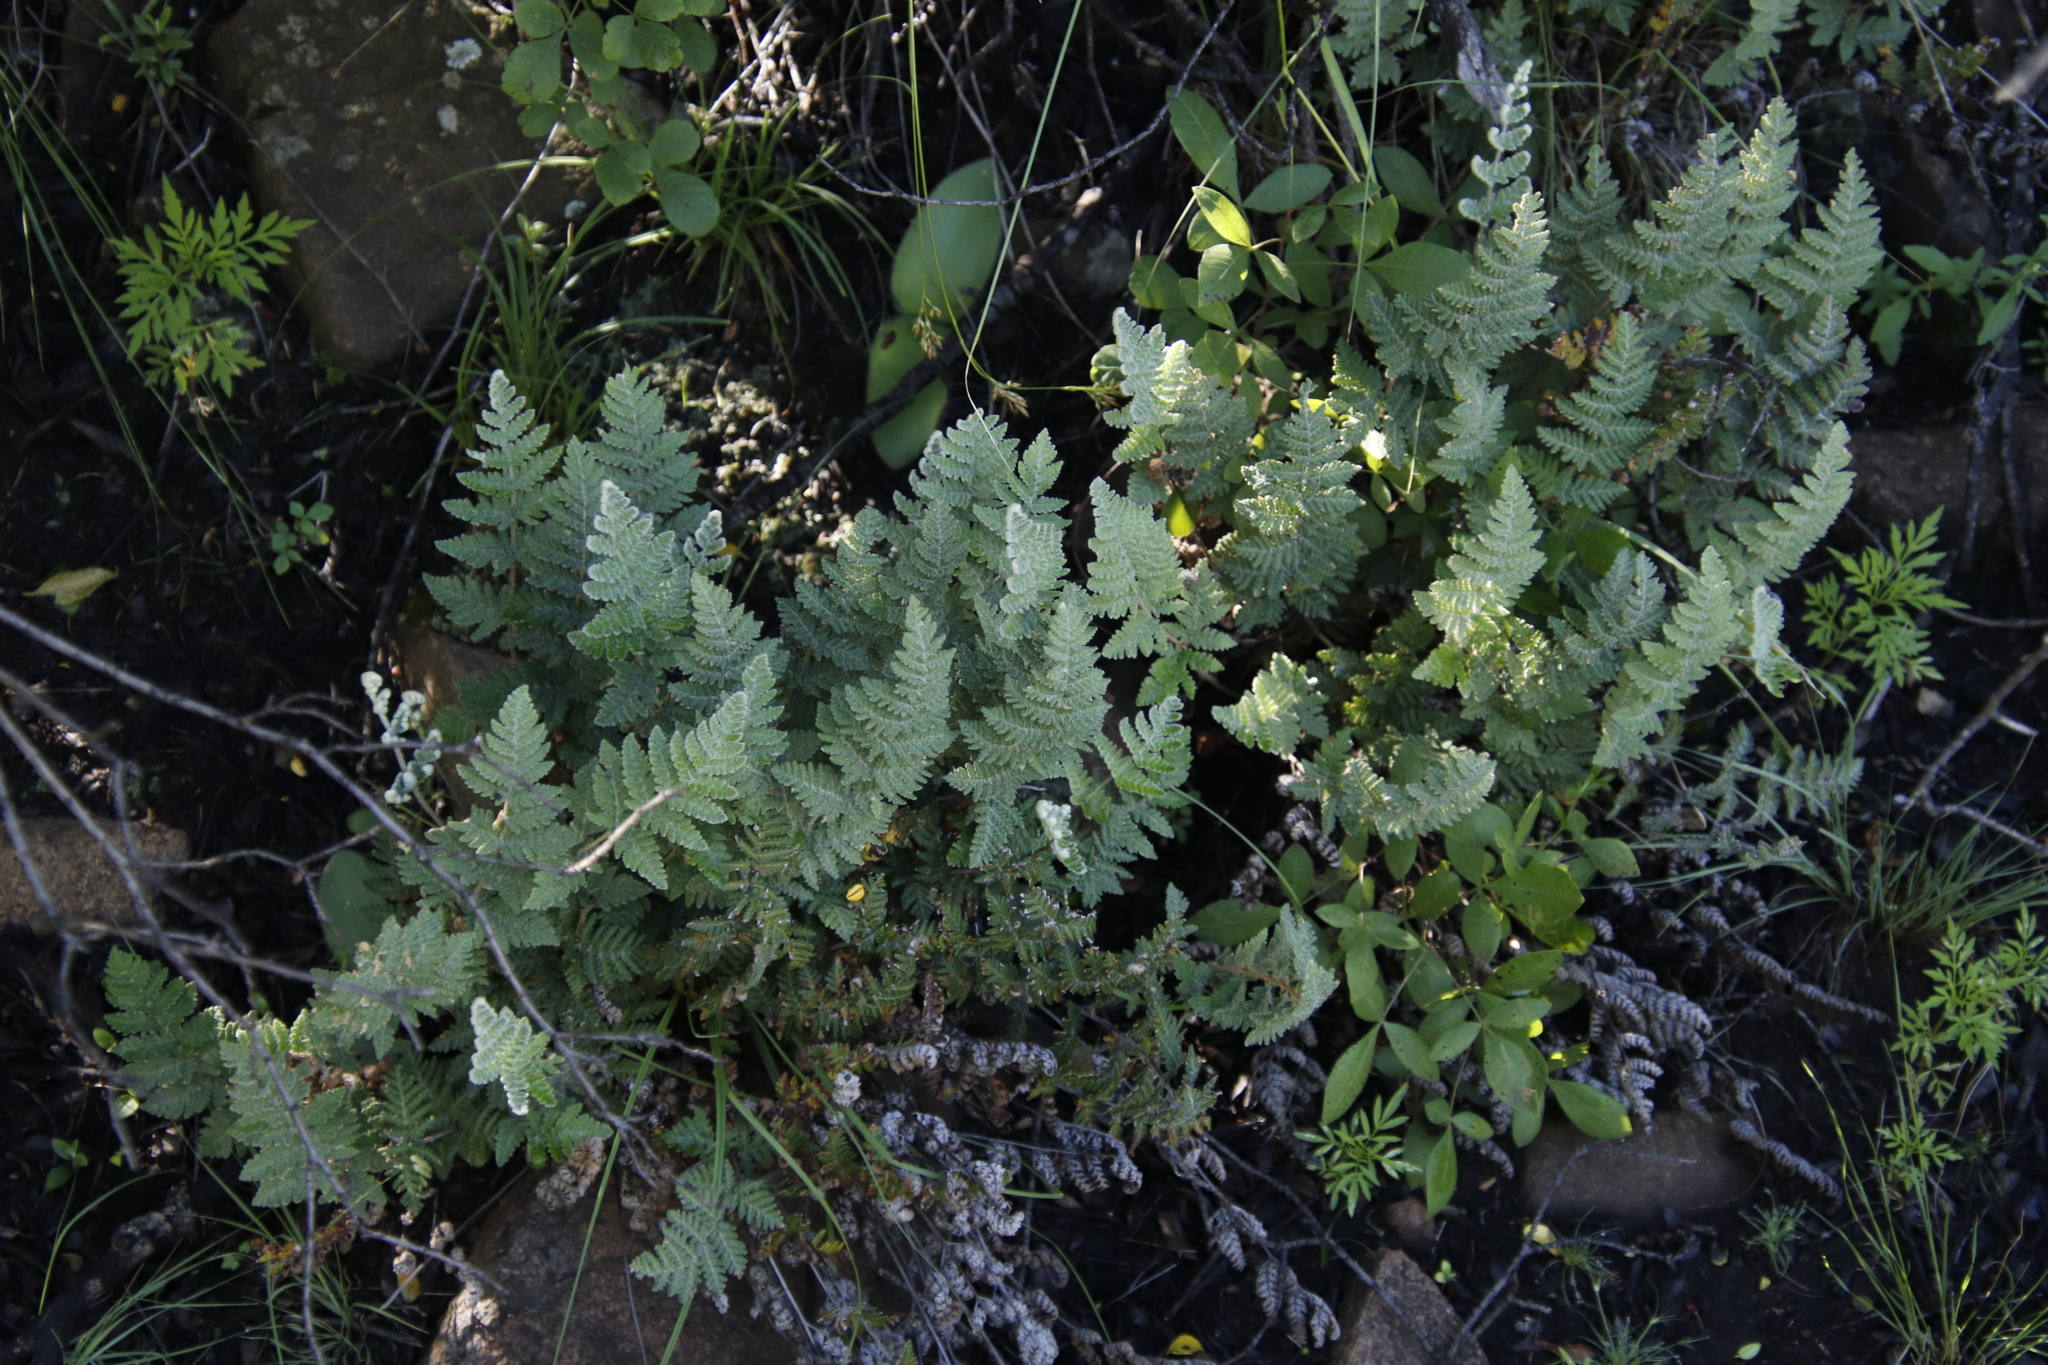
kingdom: Plantae
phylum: Tracheophyta
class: Polypodiopsida
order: Polypodiales
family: Pteridaceae
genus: Cheilanthes
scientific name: Cheilanthes eckloniana
